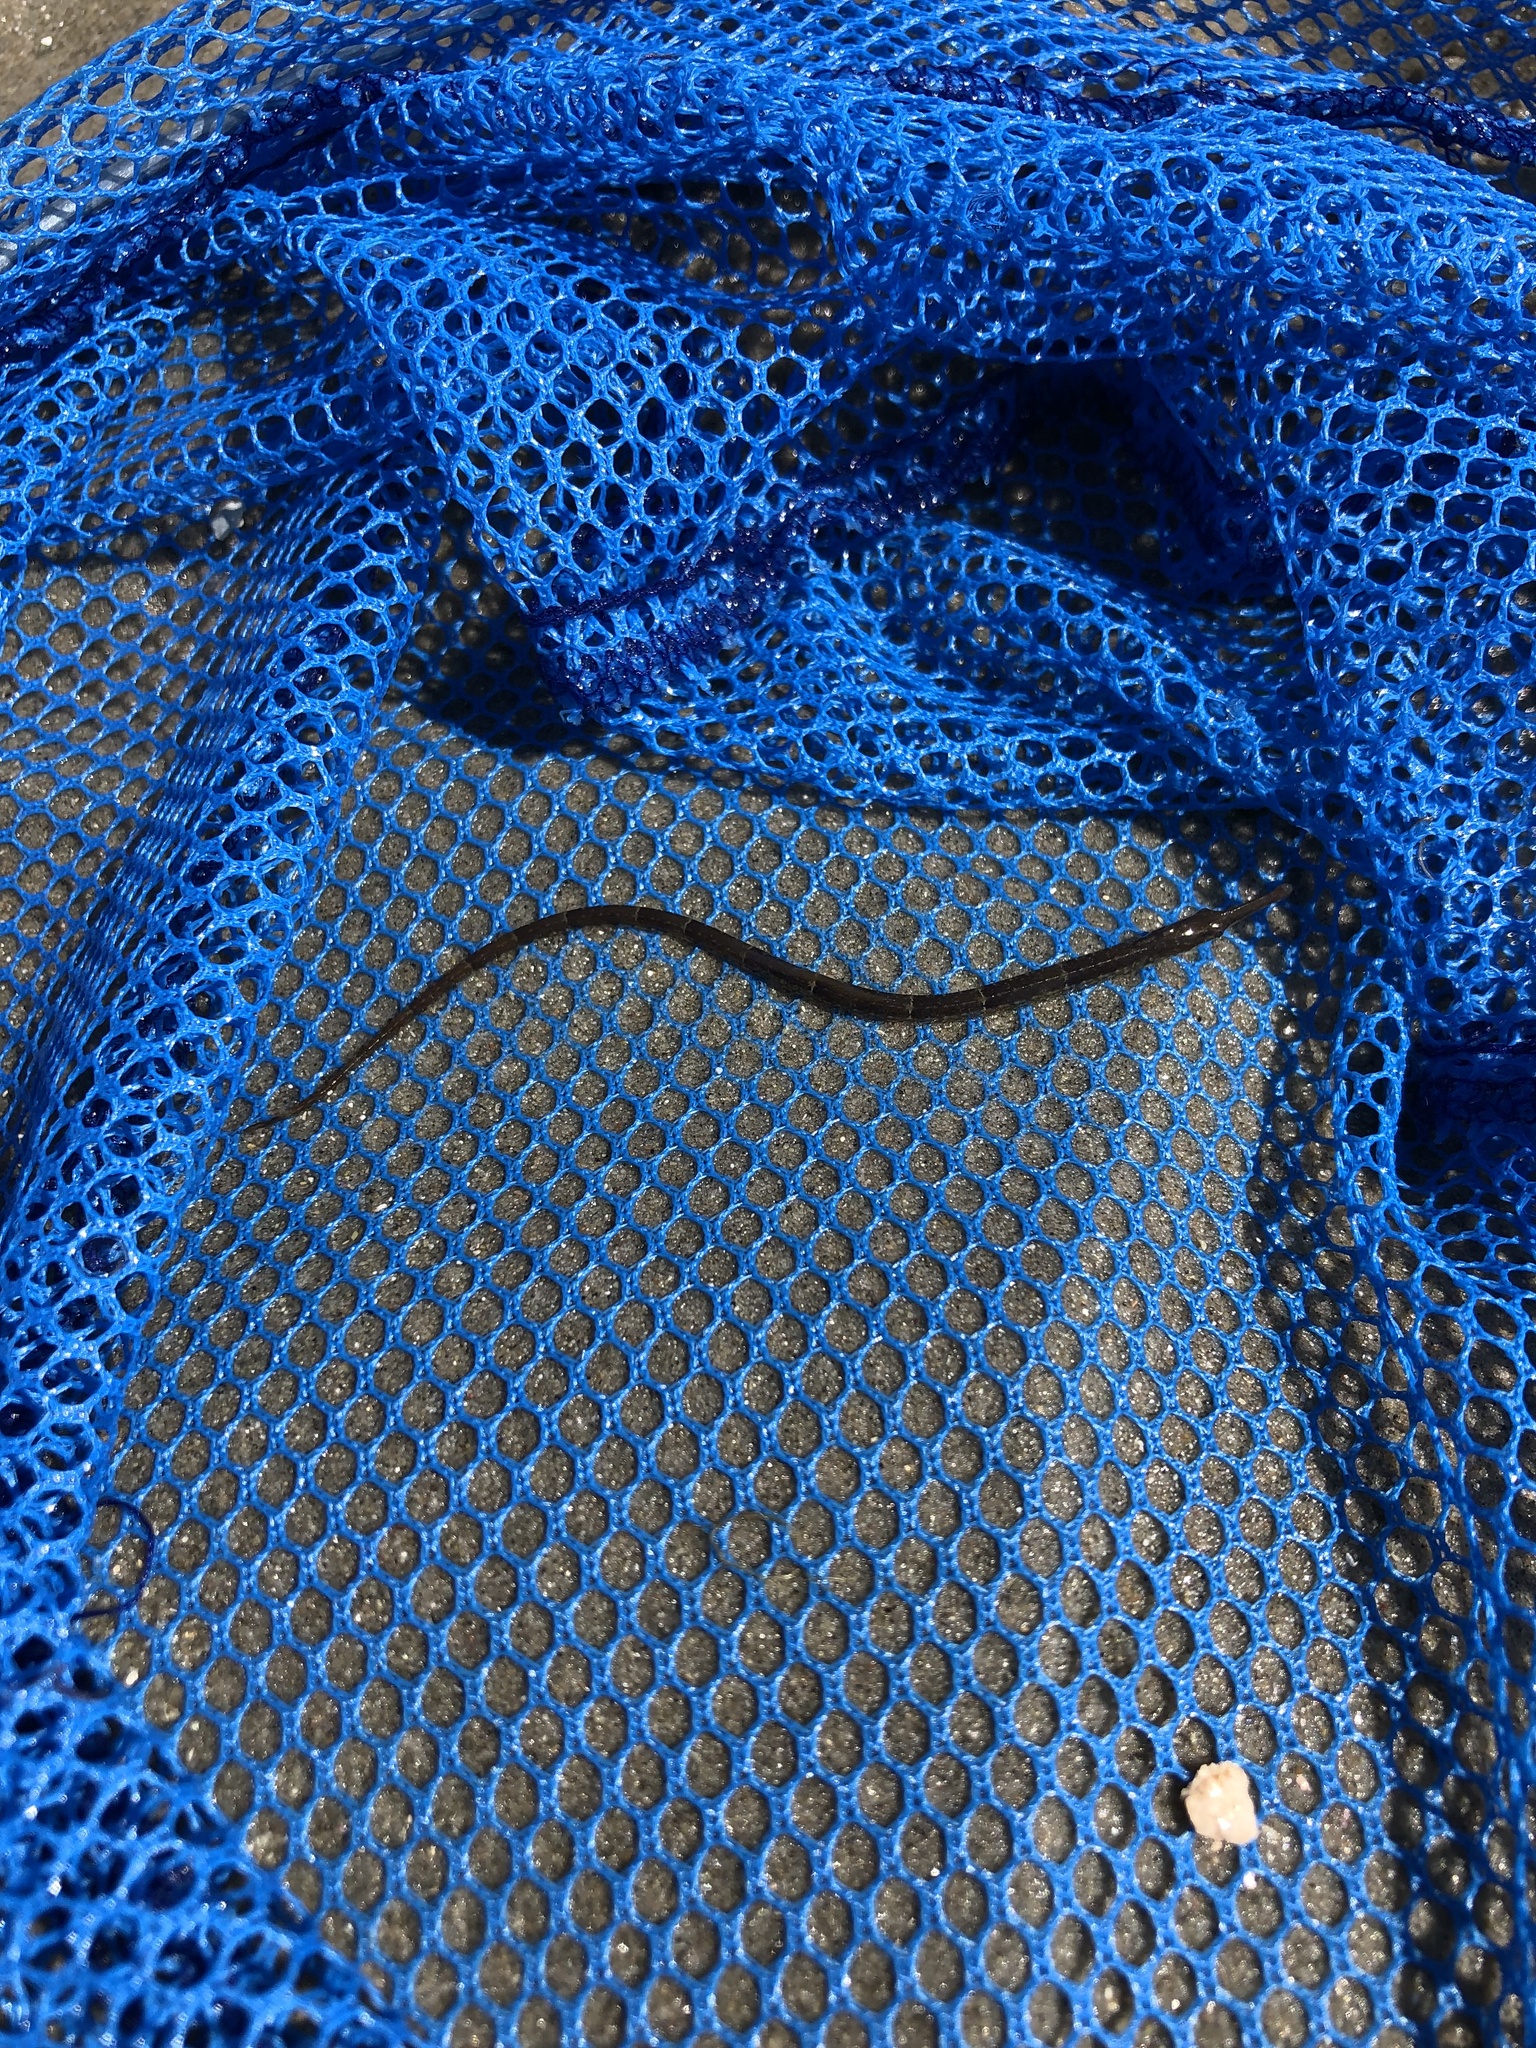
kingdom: Animalia
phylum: Chordata
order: Syngnathiformes
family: Syngnathidae
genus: Syngnathus
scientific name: Syngnathus fuscus
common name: Northern pipefish
